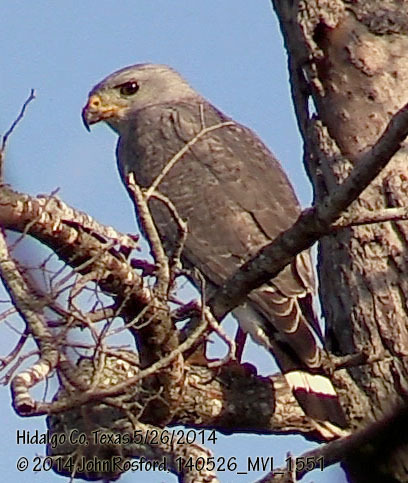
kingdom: Animalia
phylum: Chordata
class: Aves
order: Accipitriformes
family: Accipitridae
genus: Buteo
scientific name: Buteo nitidus
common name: Grey-lined hawk
